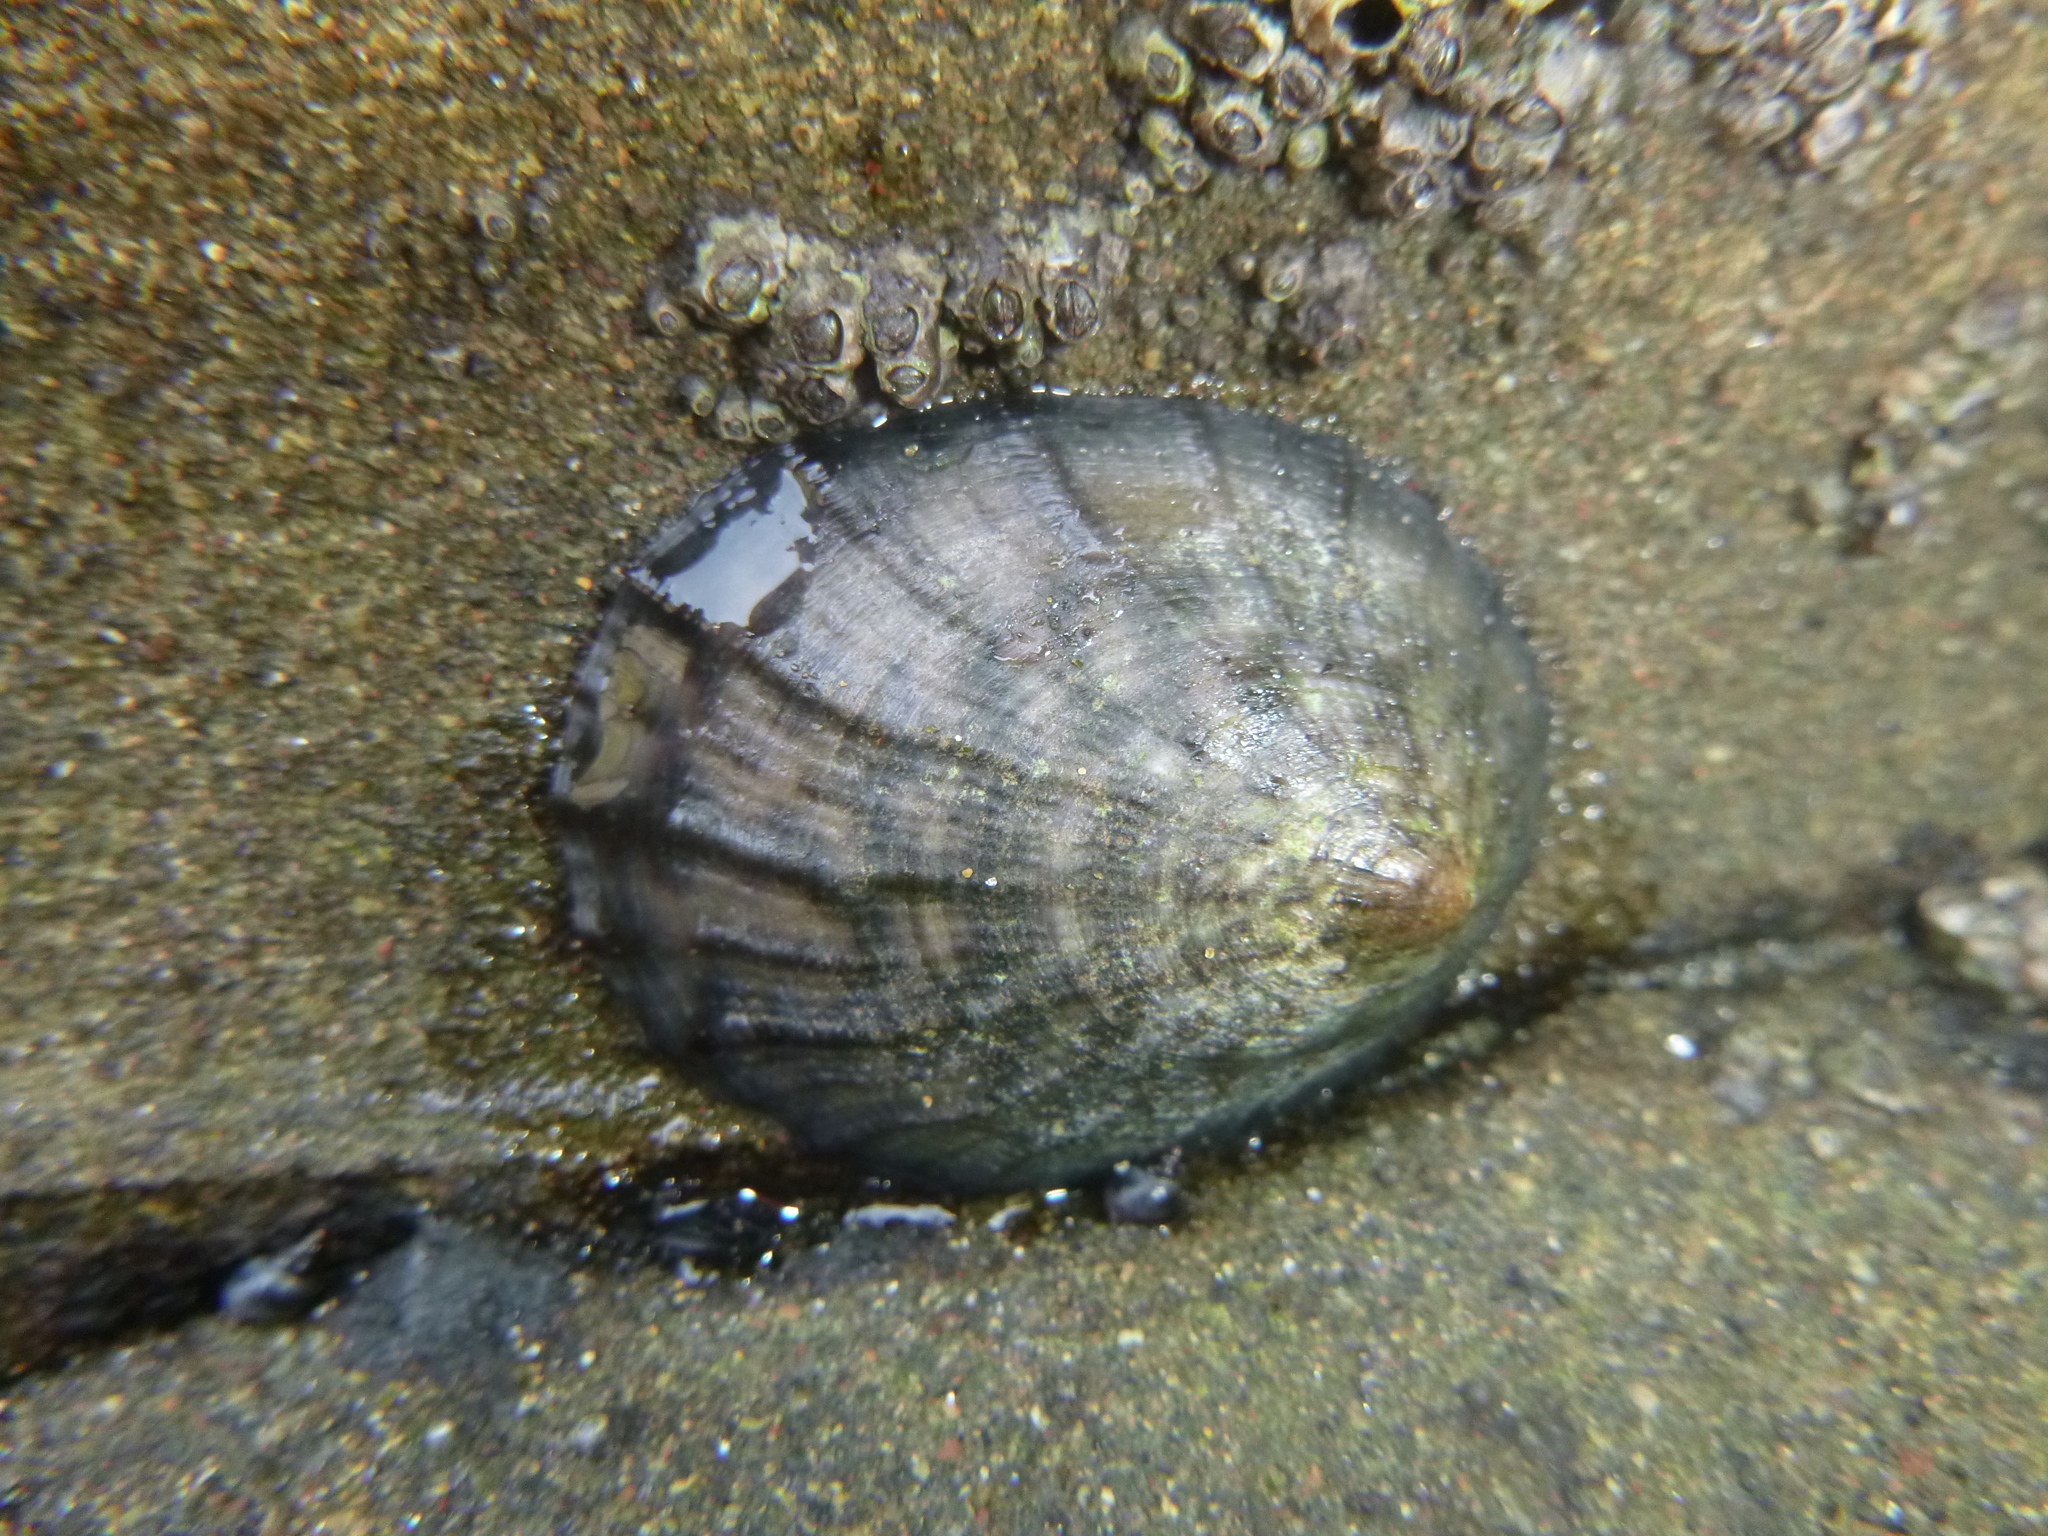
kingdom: Animalia
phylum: Mollusca
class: Gastropoda
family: Nacellidae
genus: Cellana
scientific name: Cellana radians
